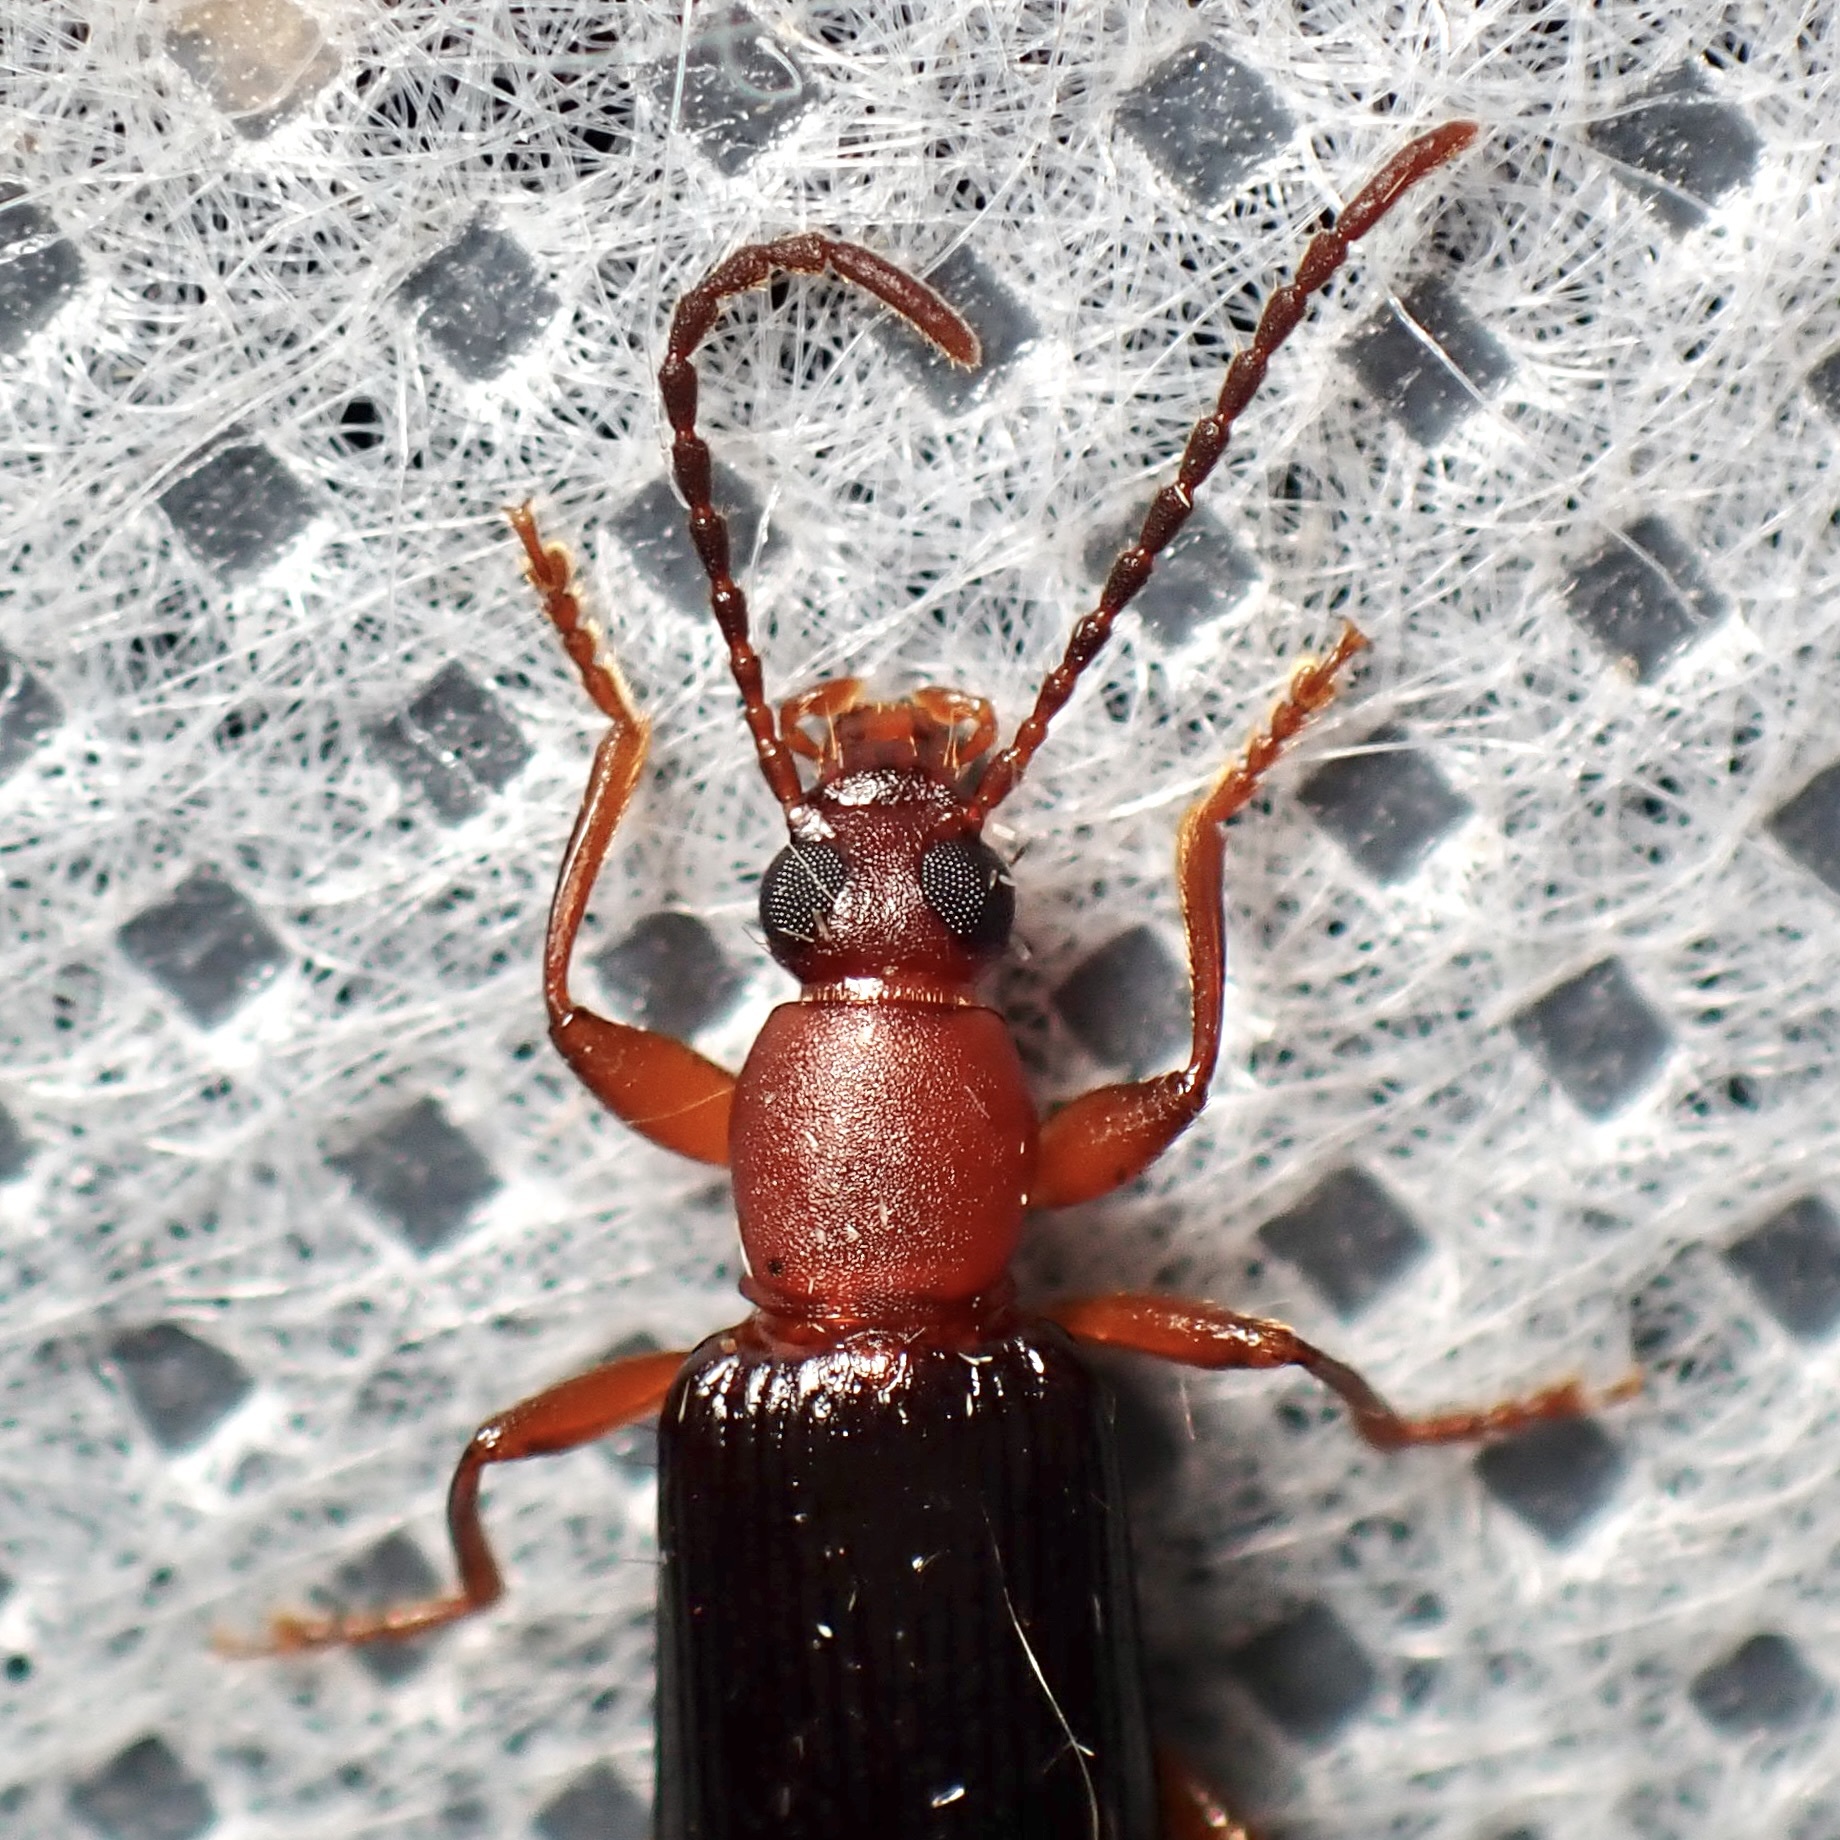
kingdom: Animalia
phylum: Arthropoda
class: Insecta
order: Coleoptera
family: Tenebrionidae
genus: Statira
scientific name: Statira pluripunctata
